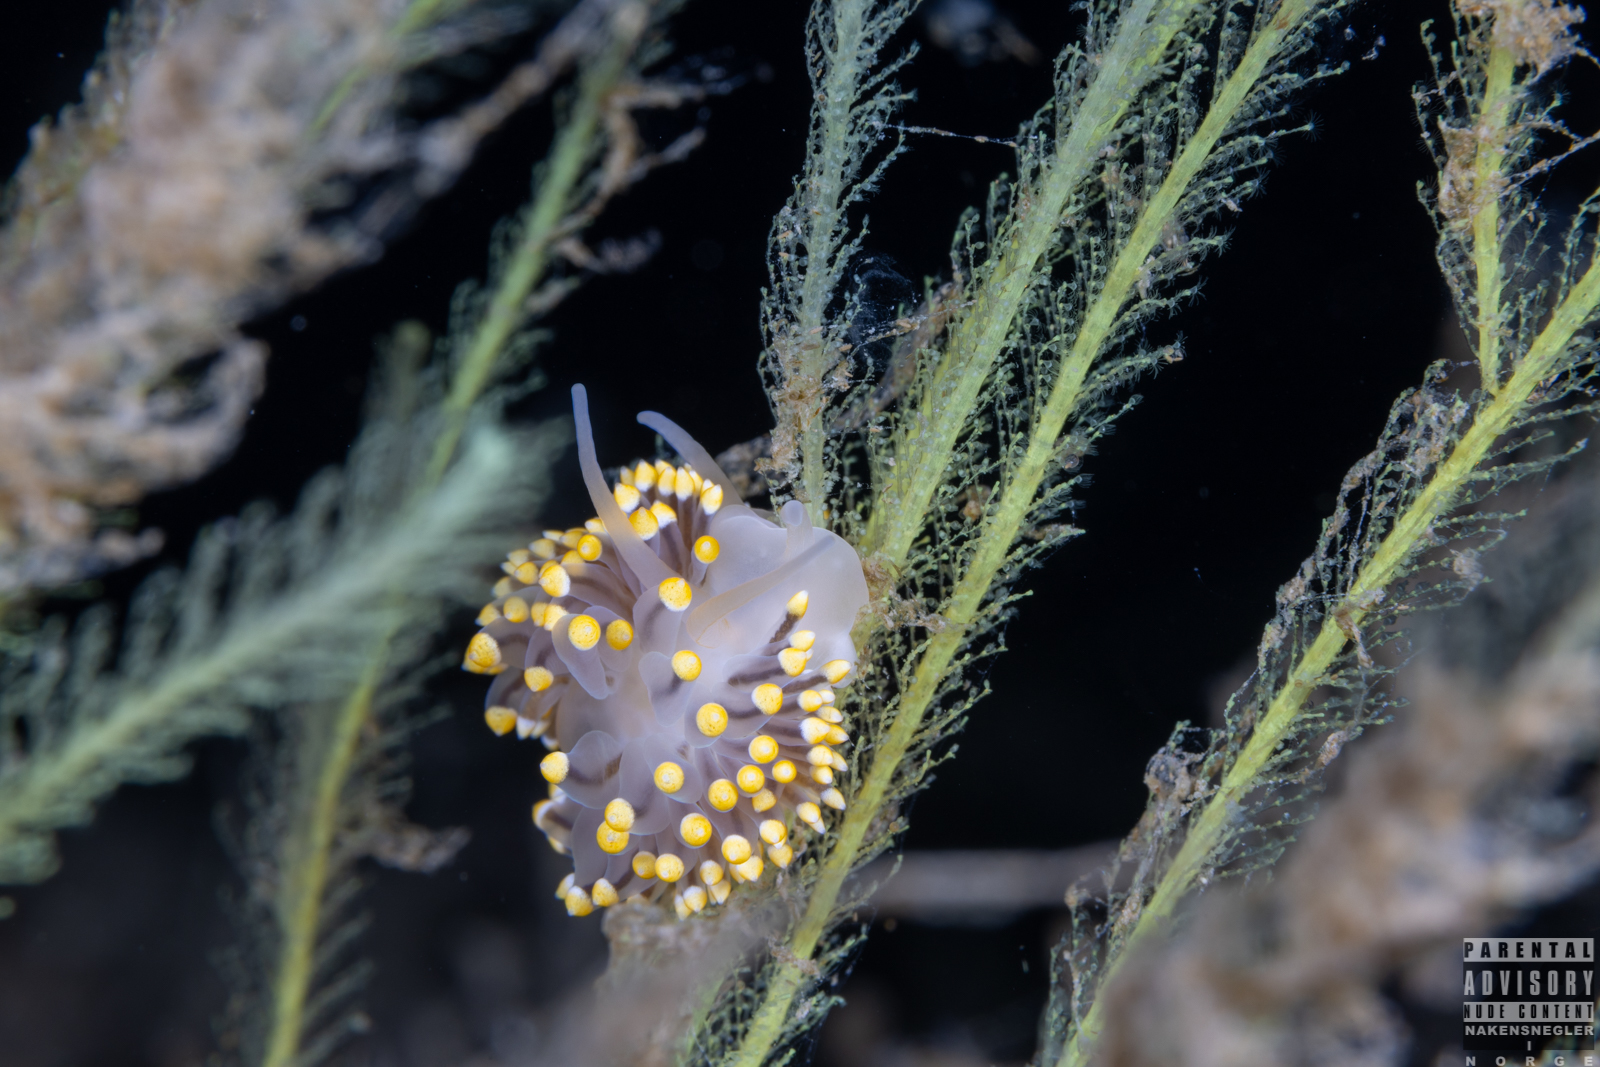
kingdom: Animalia
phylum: Mollusca
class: Gastropoda
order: Nudibranchia
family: Eubranchidae
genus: Eubranchus
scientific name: Eubranchus tricolor
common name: Painted balloon aeolis
